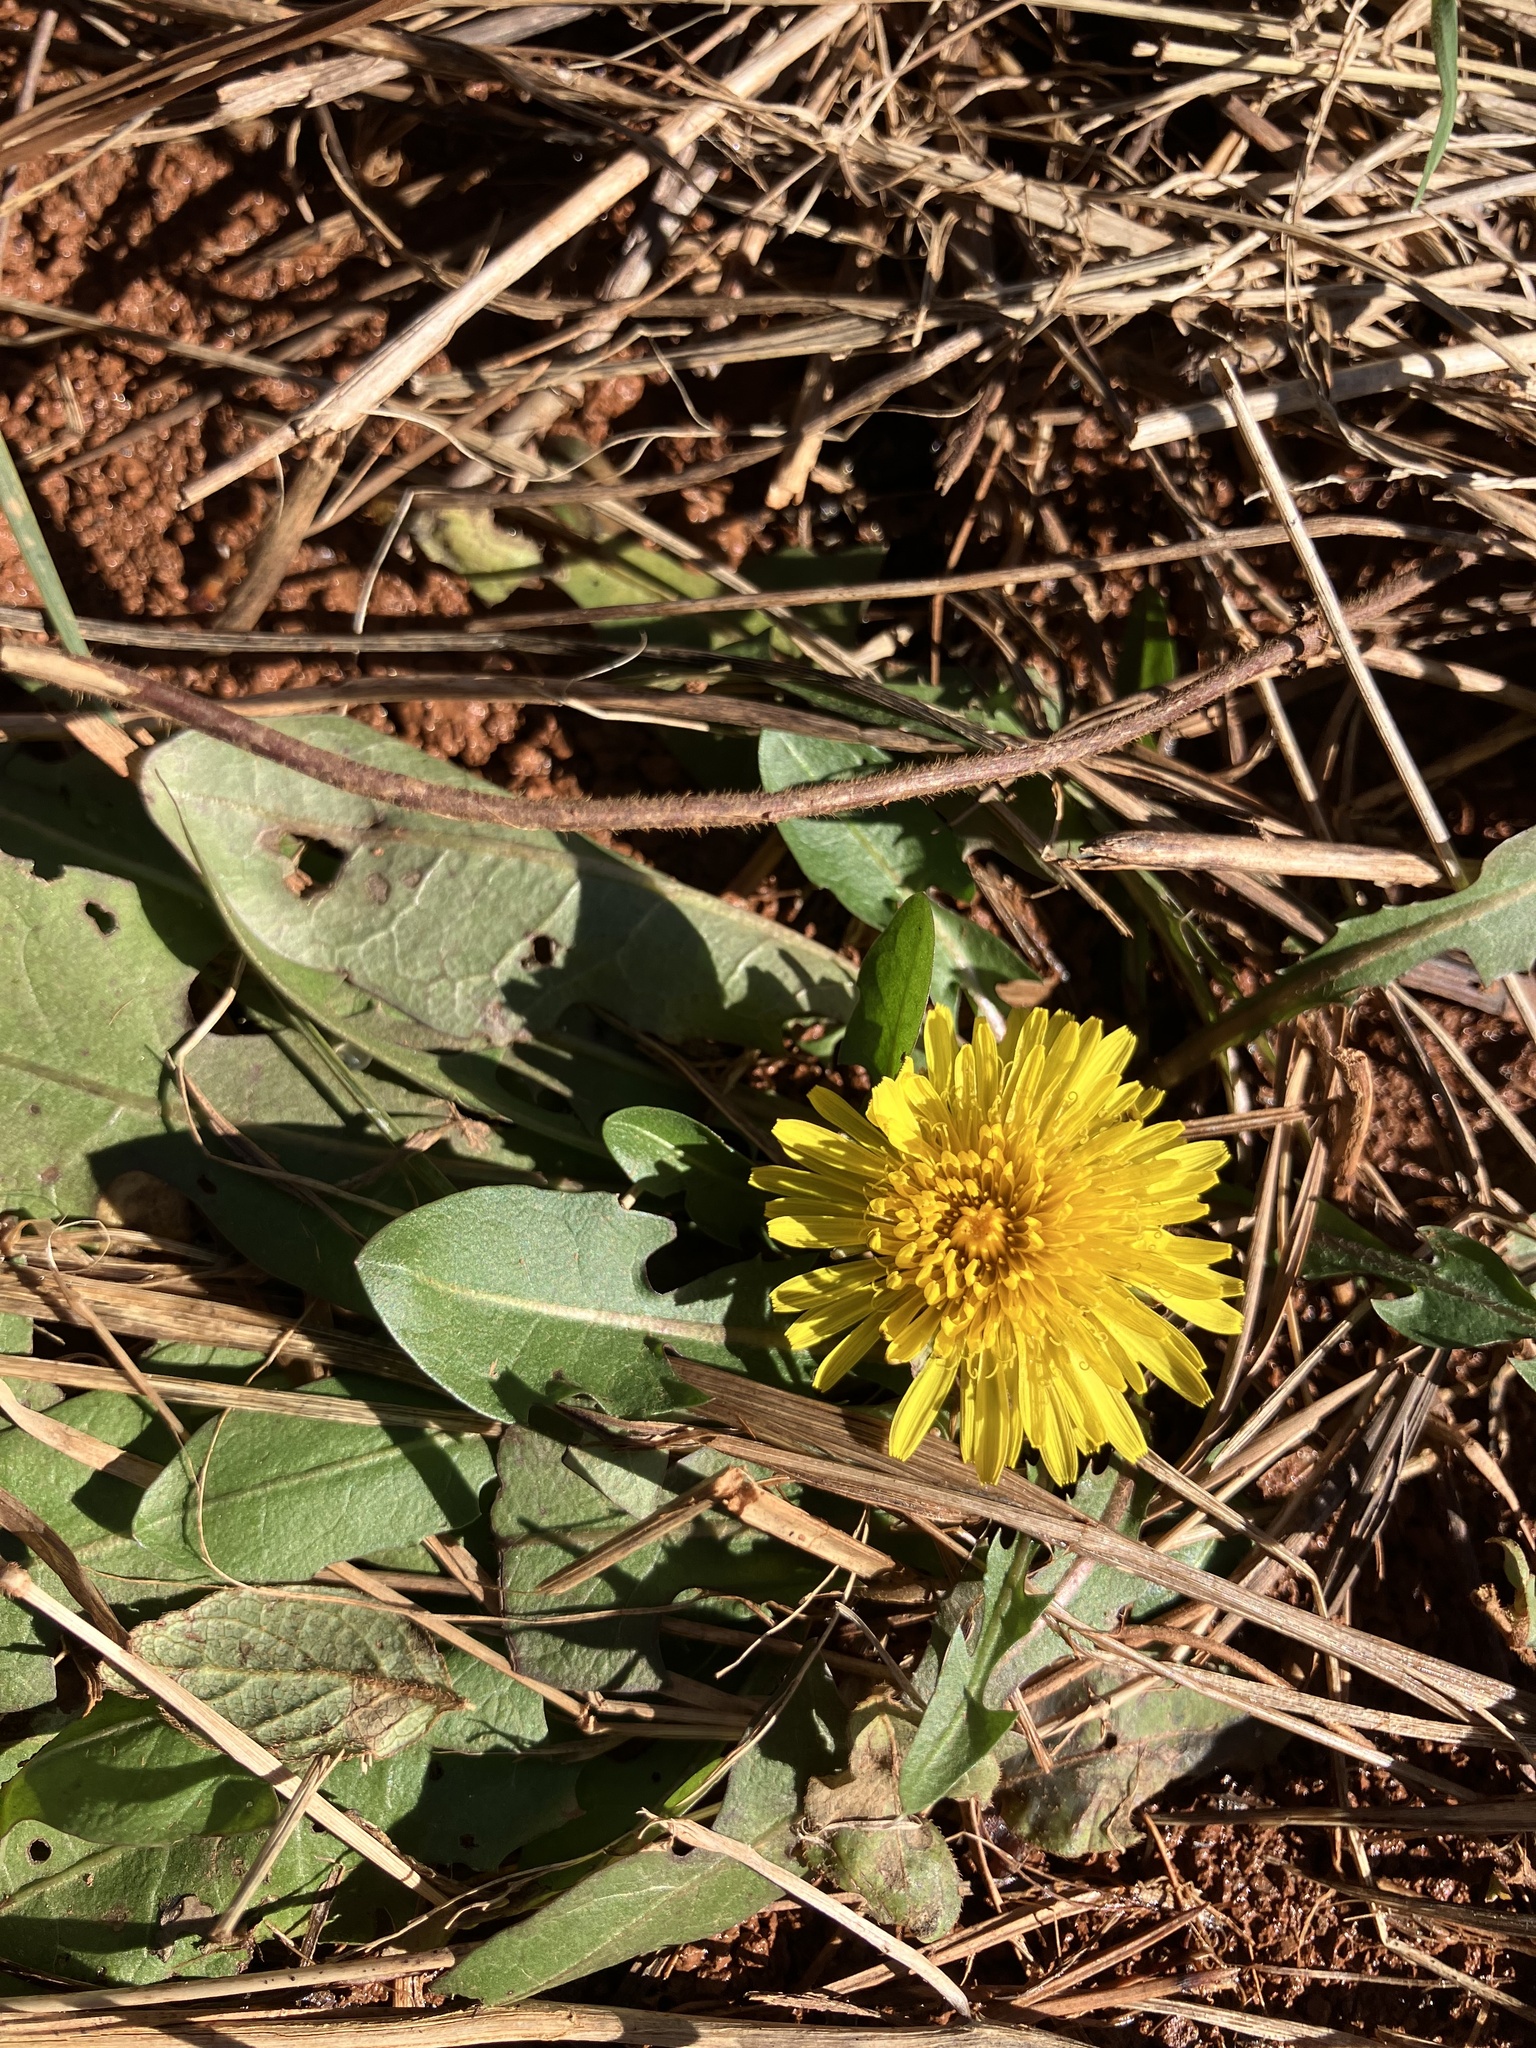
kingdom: Plantae
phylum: Tracheophyta
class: Magnoliopsida
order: Asterales
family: Asteraceae
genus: Taraxacum
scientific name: Taraxacum officinale
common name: Common dandelion
